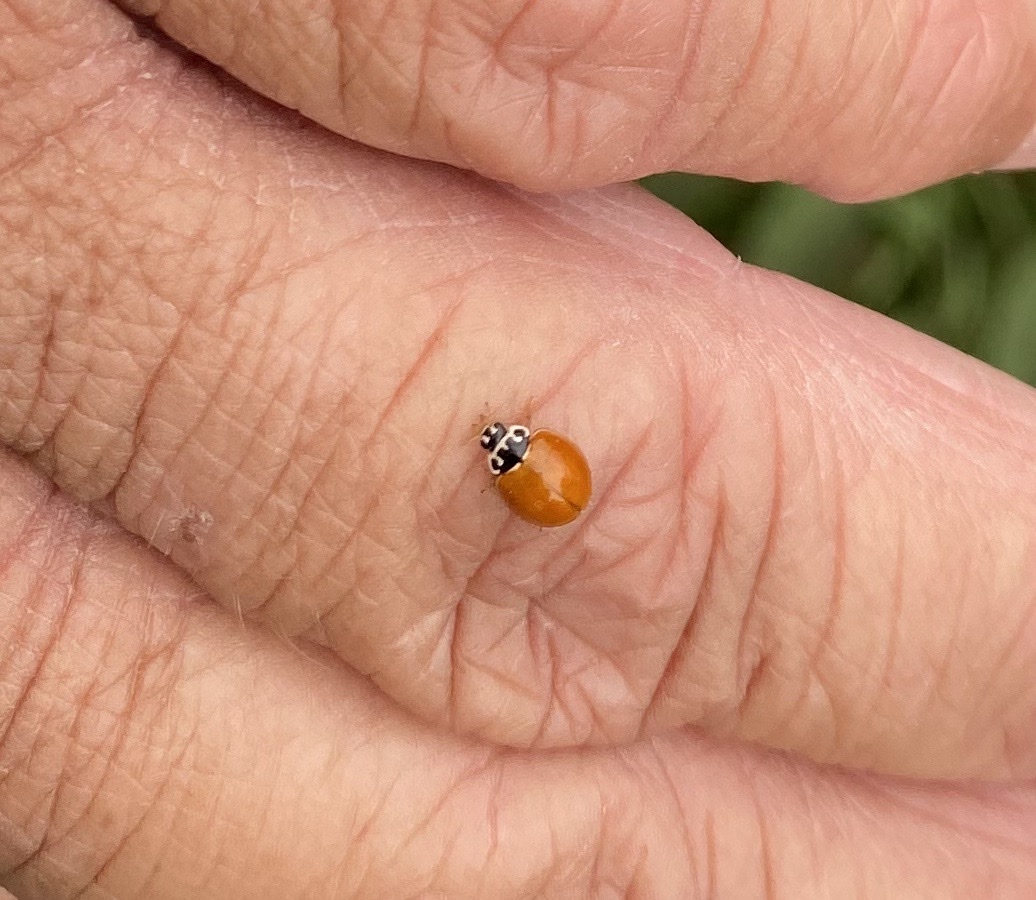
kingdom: Animalia
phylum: Arthropoda
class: Insecta
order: Coleoptera
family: Coccinellidae
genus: Cycloneda
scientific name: Cycloneda munda
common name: Polished lady beetle
